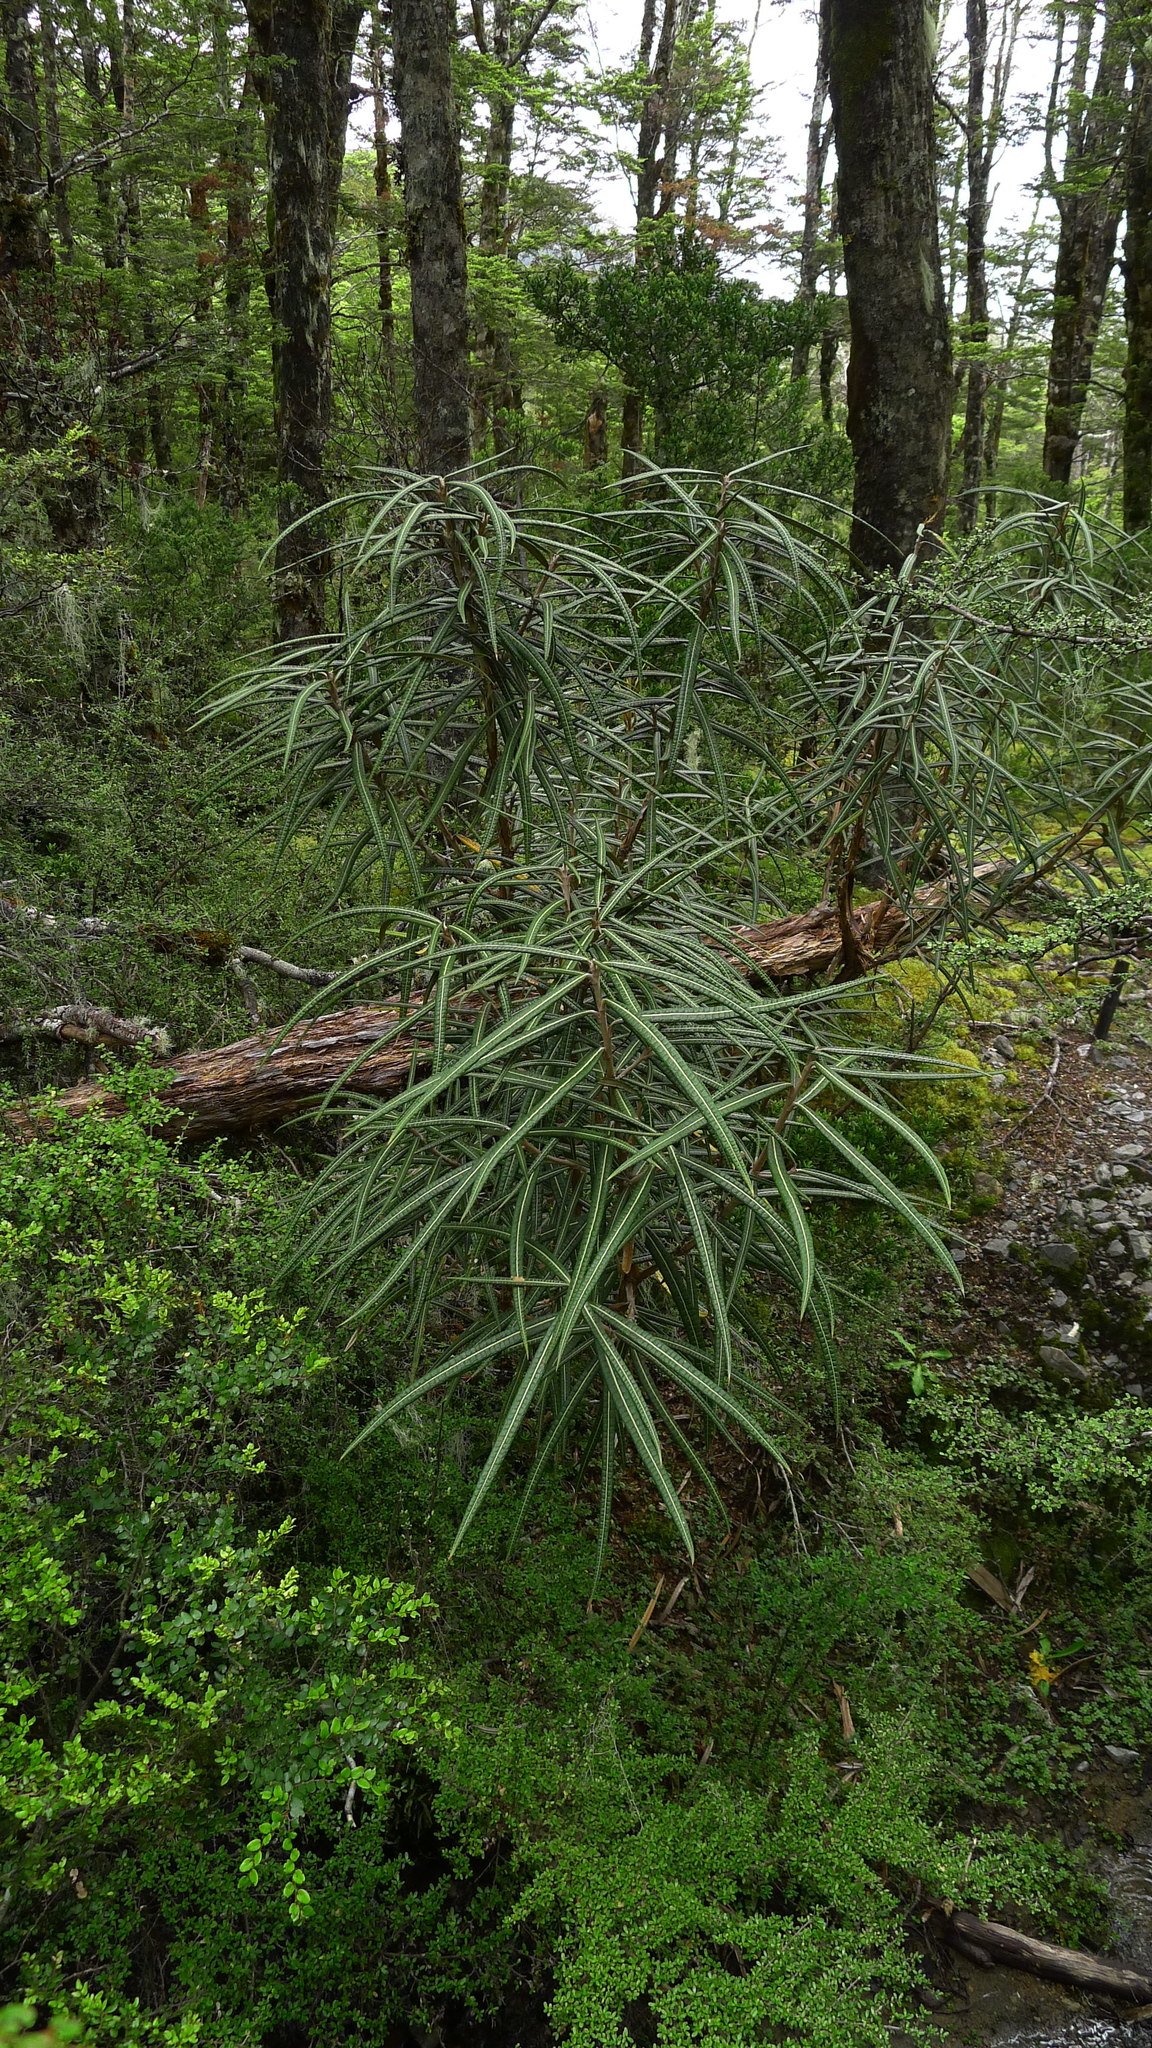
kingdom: Plantae
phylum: Tracheophyta
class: Magnoliopsida
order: Asterales
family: Asteraceae
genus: Olearia
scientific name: Olearia lacunosa
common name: Lancewood tree daisy
